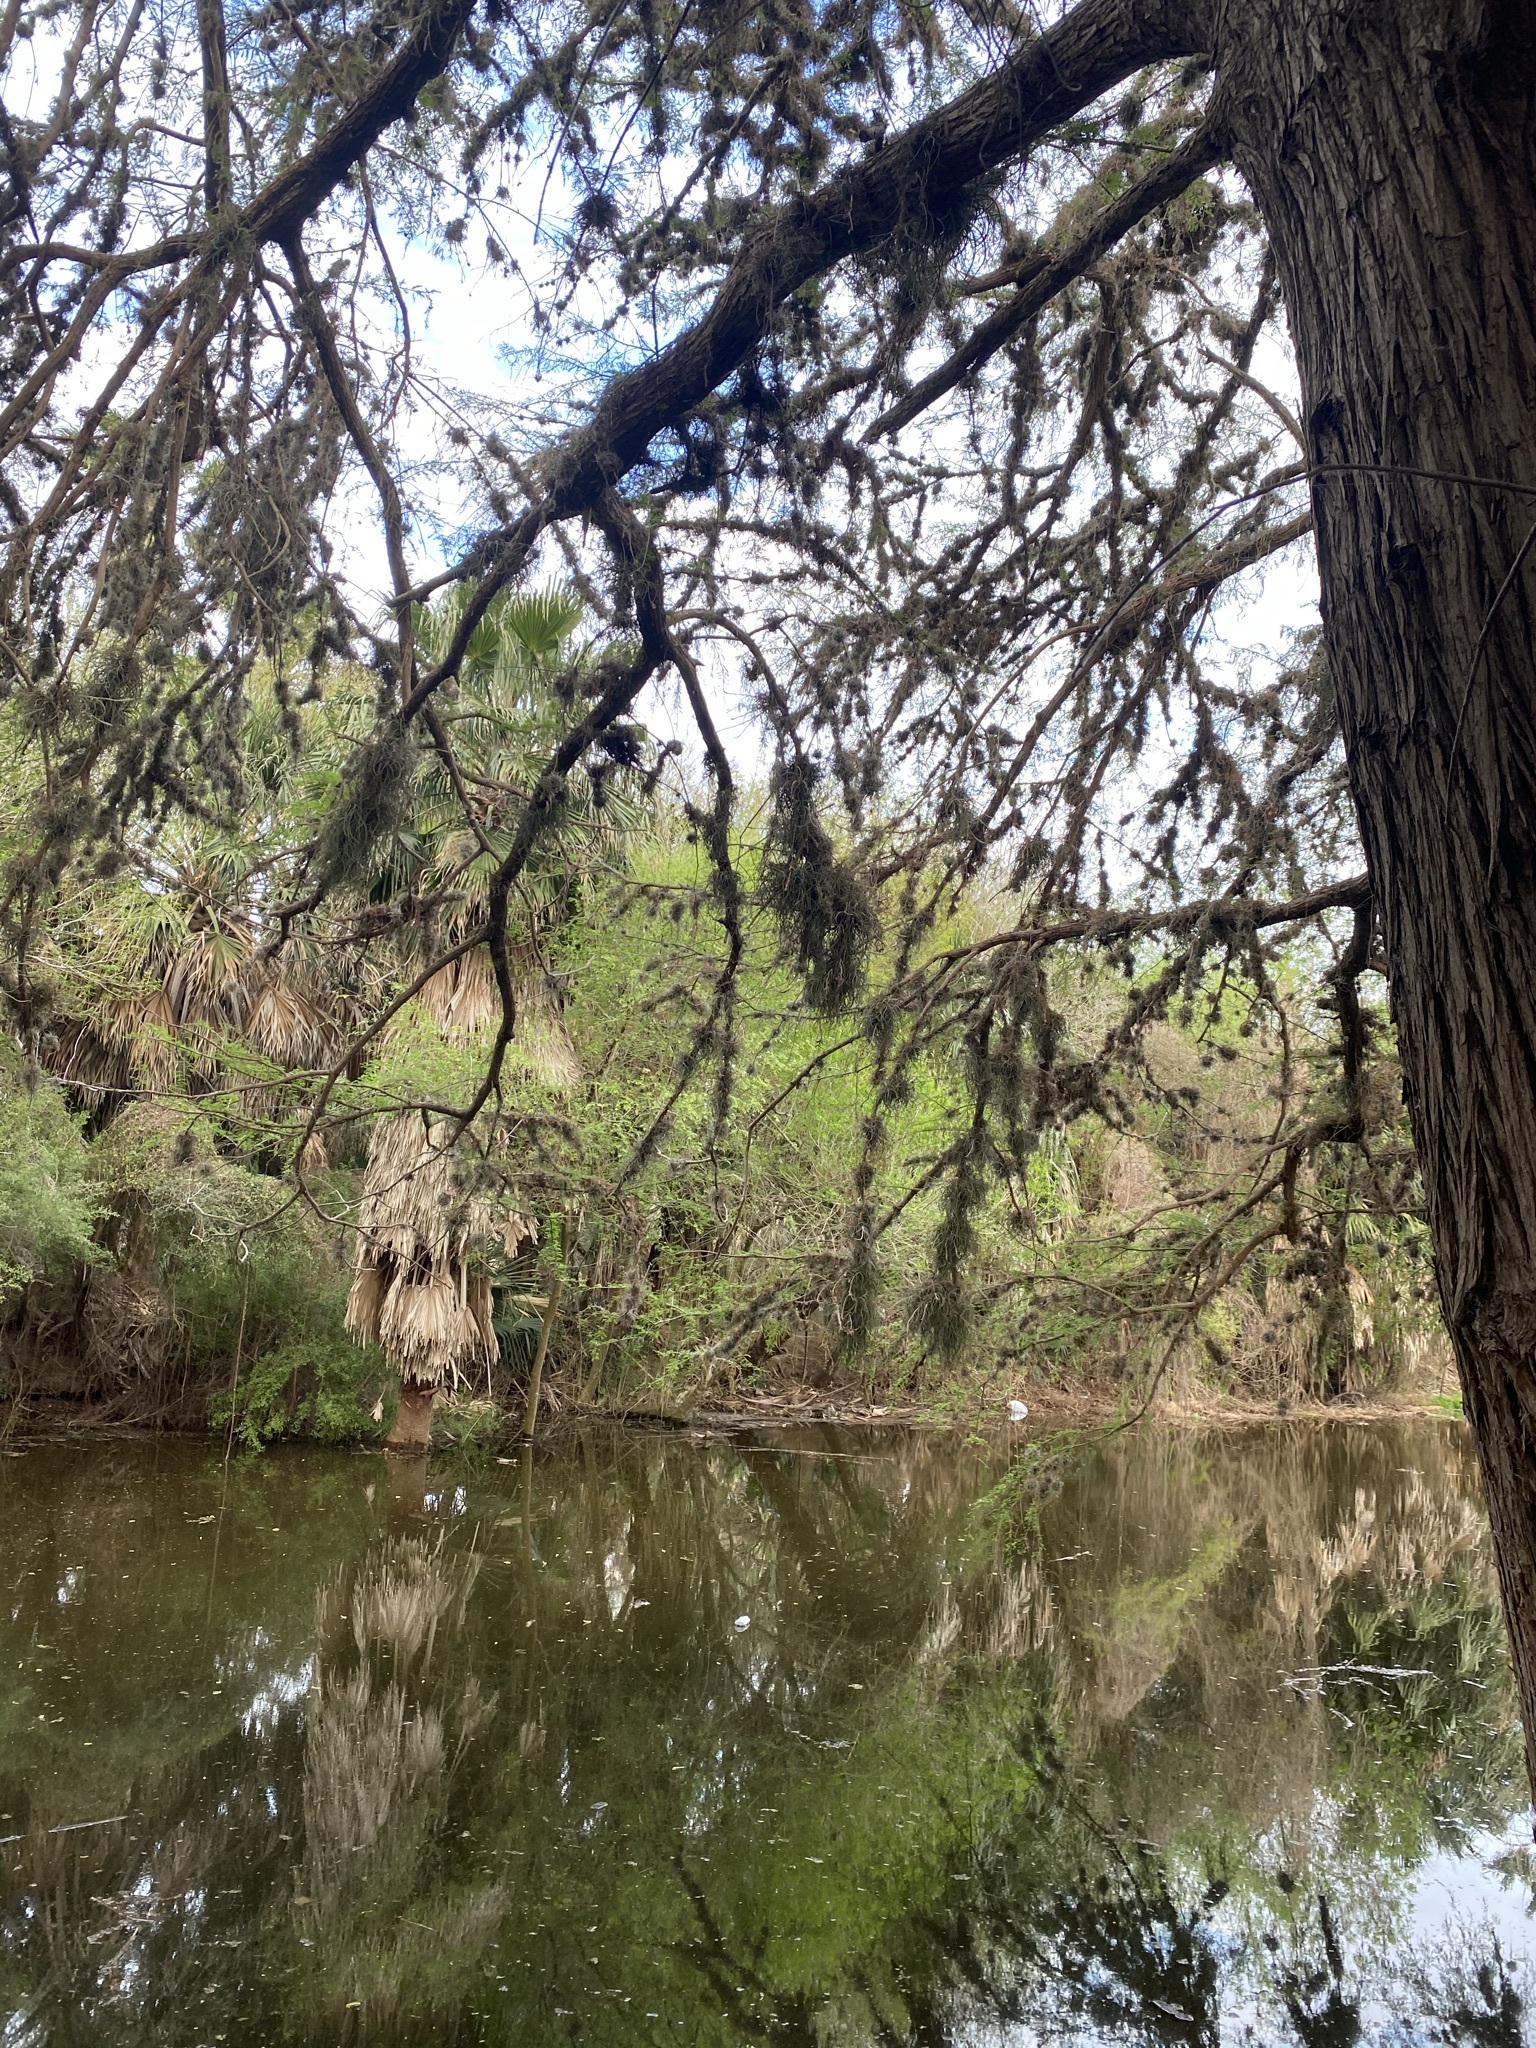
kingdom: Plantae
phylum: Tracheophyta
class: Pinopsida
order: Pinales
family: Cupressaceae
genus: Taxodium
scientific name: Taxodium mucronatum
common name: Montezume bald cypress
